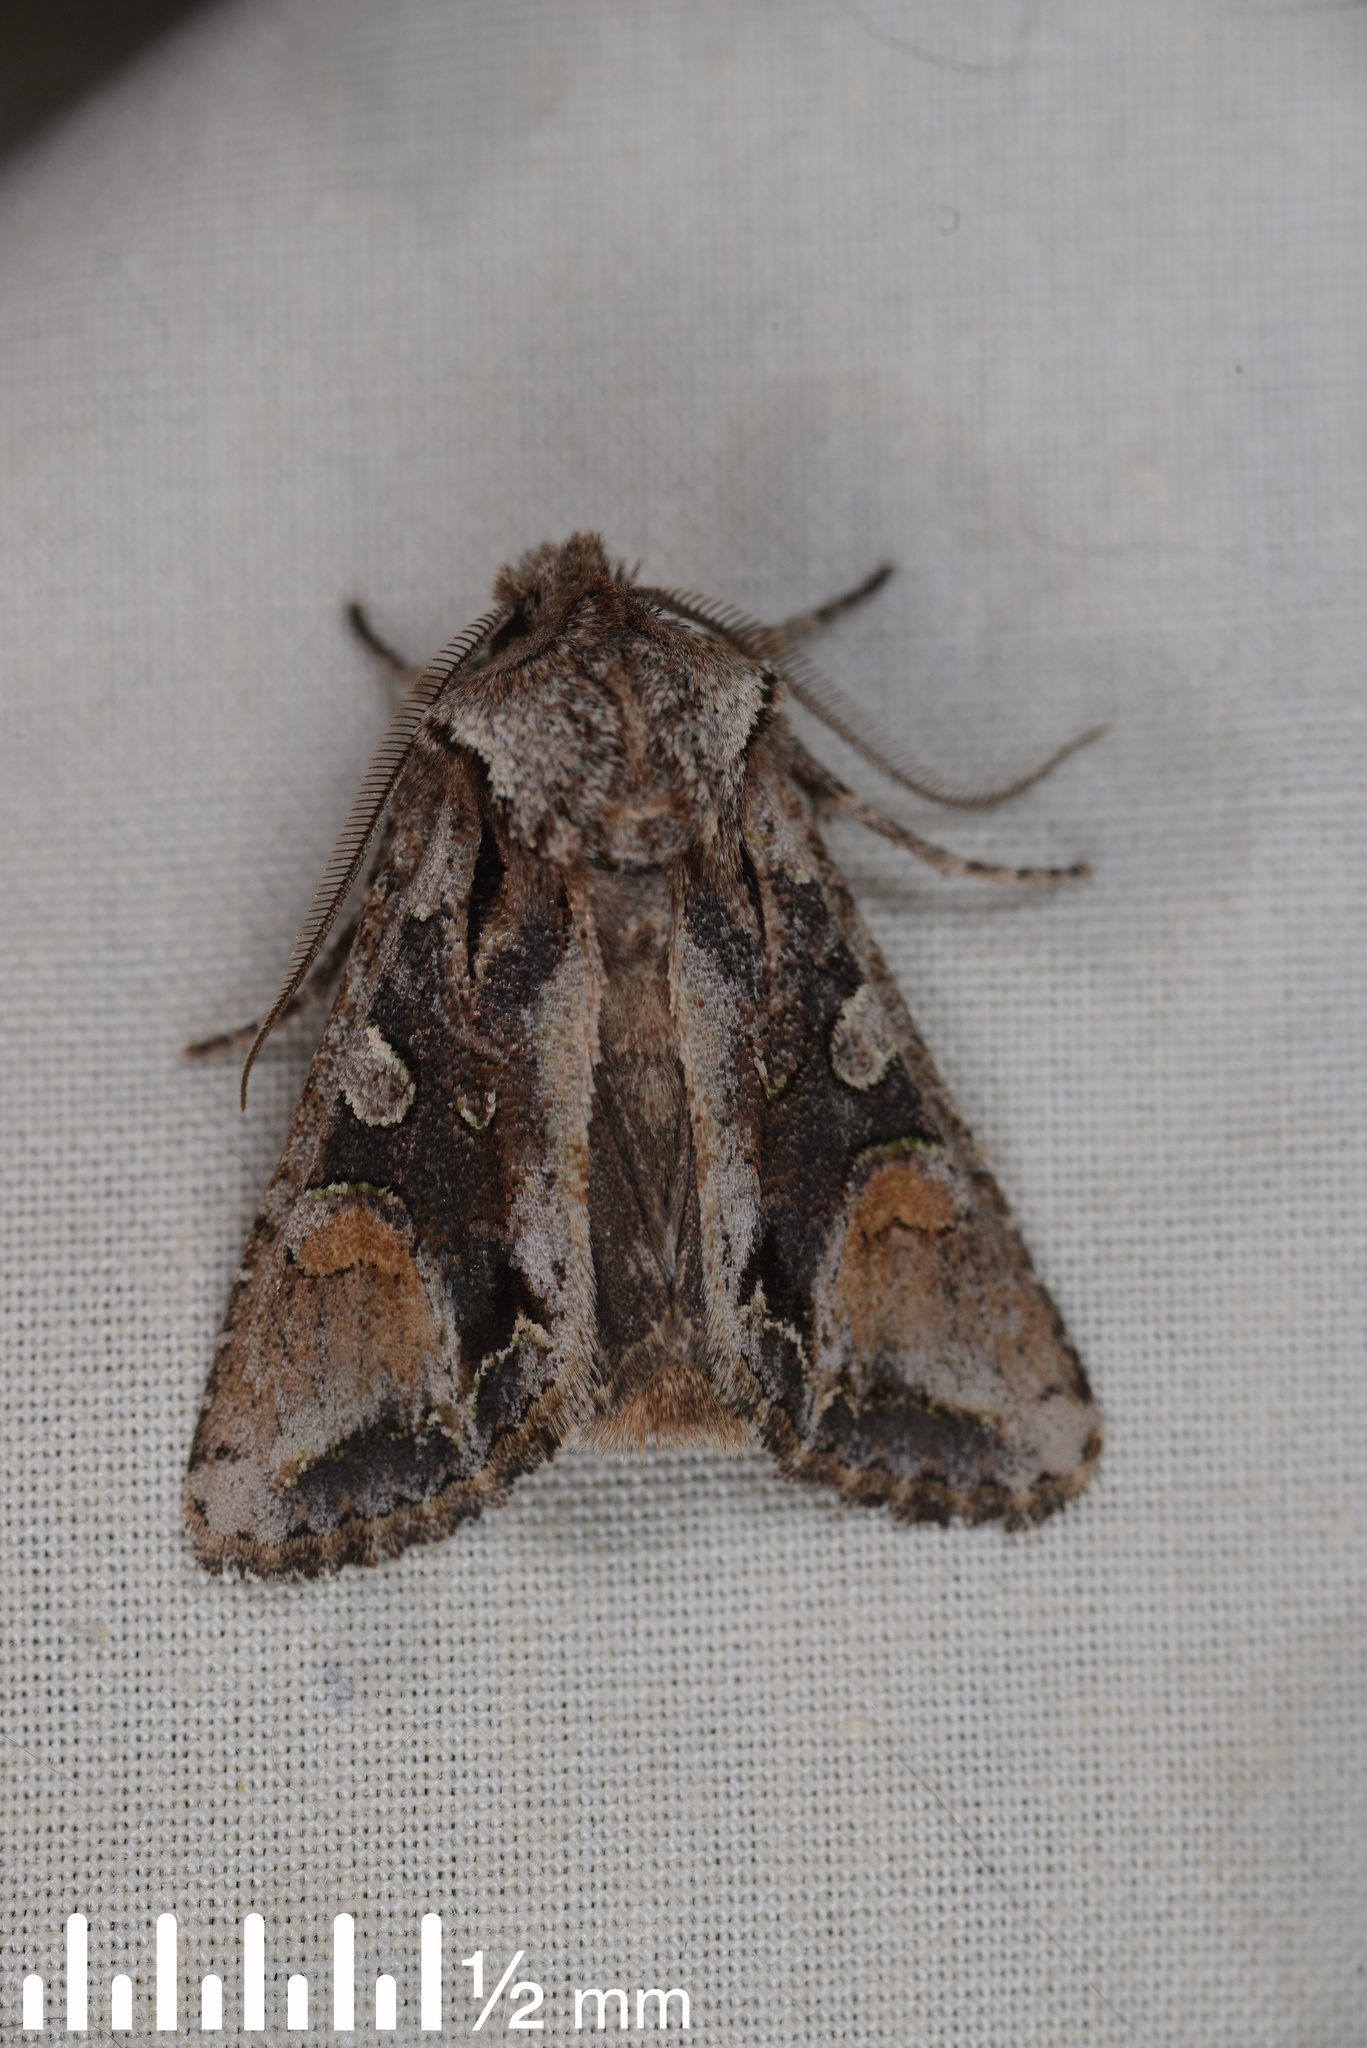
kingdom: Animalia
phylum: Arthropoda
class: Insecta
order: Lepidoptera
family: Noctuidae
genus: Ichneutica
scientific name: Ichneutica
